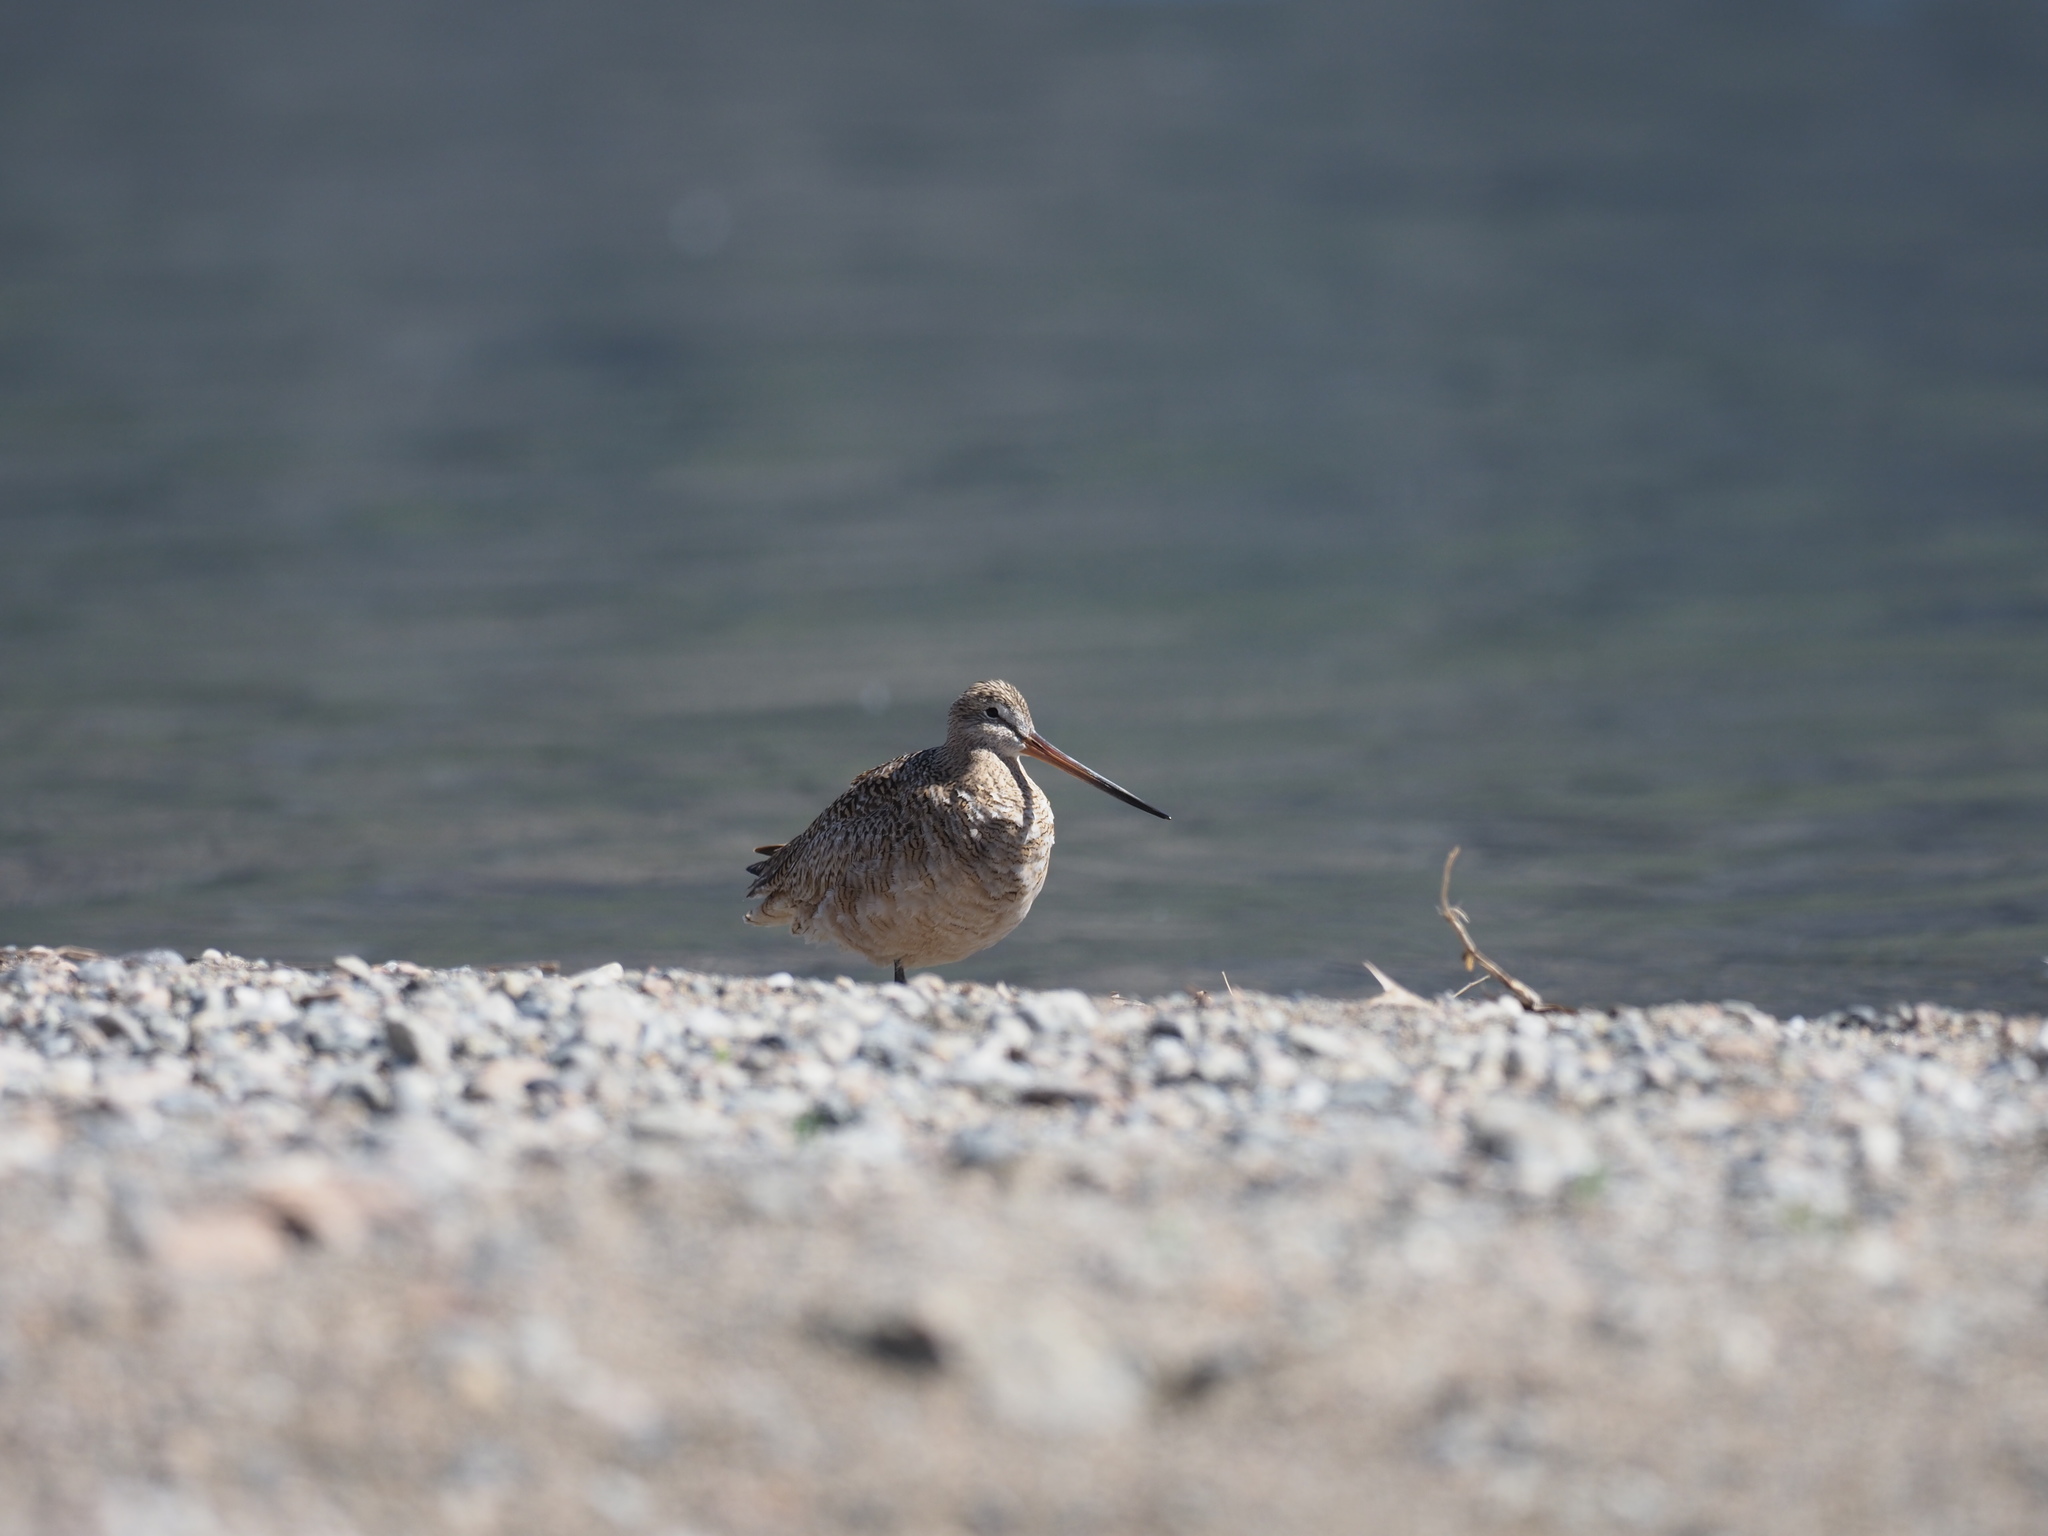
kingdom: Animalia
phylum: Chordata
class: Aves
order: Charadriiformes
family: Scolopacidae
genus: Limosa
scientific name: Limosa fedoa
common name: Marbled godwit
